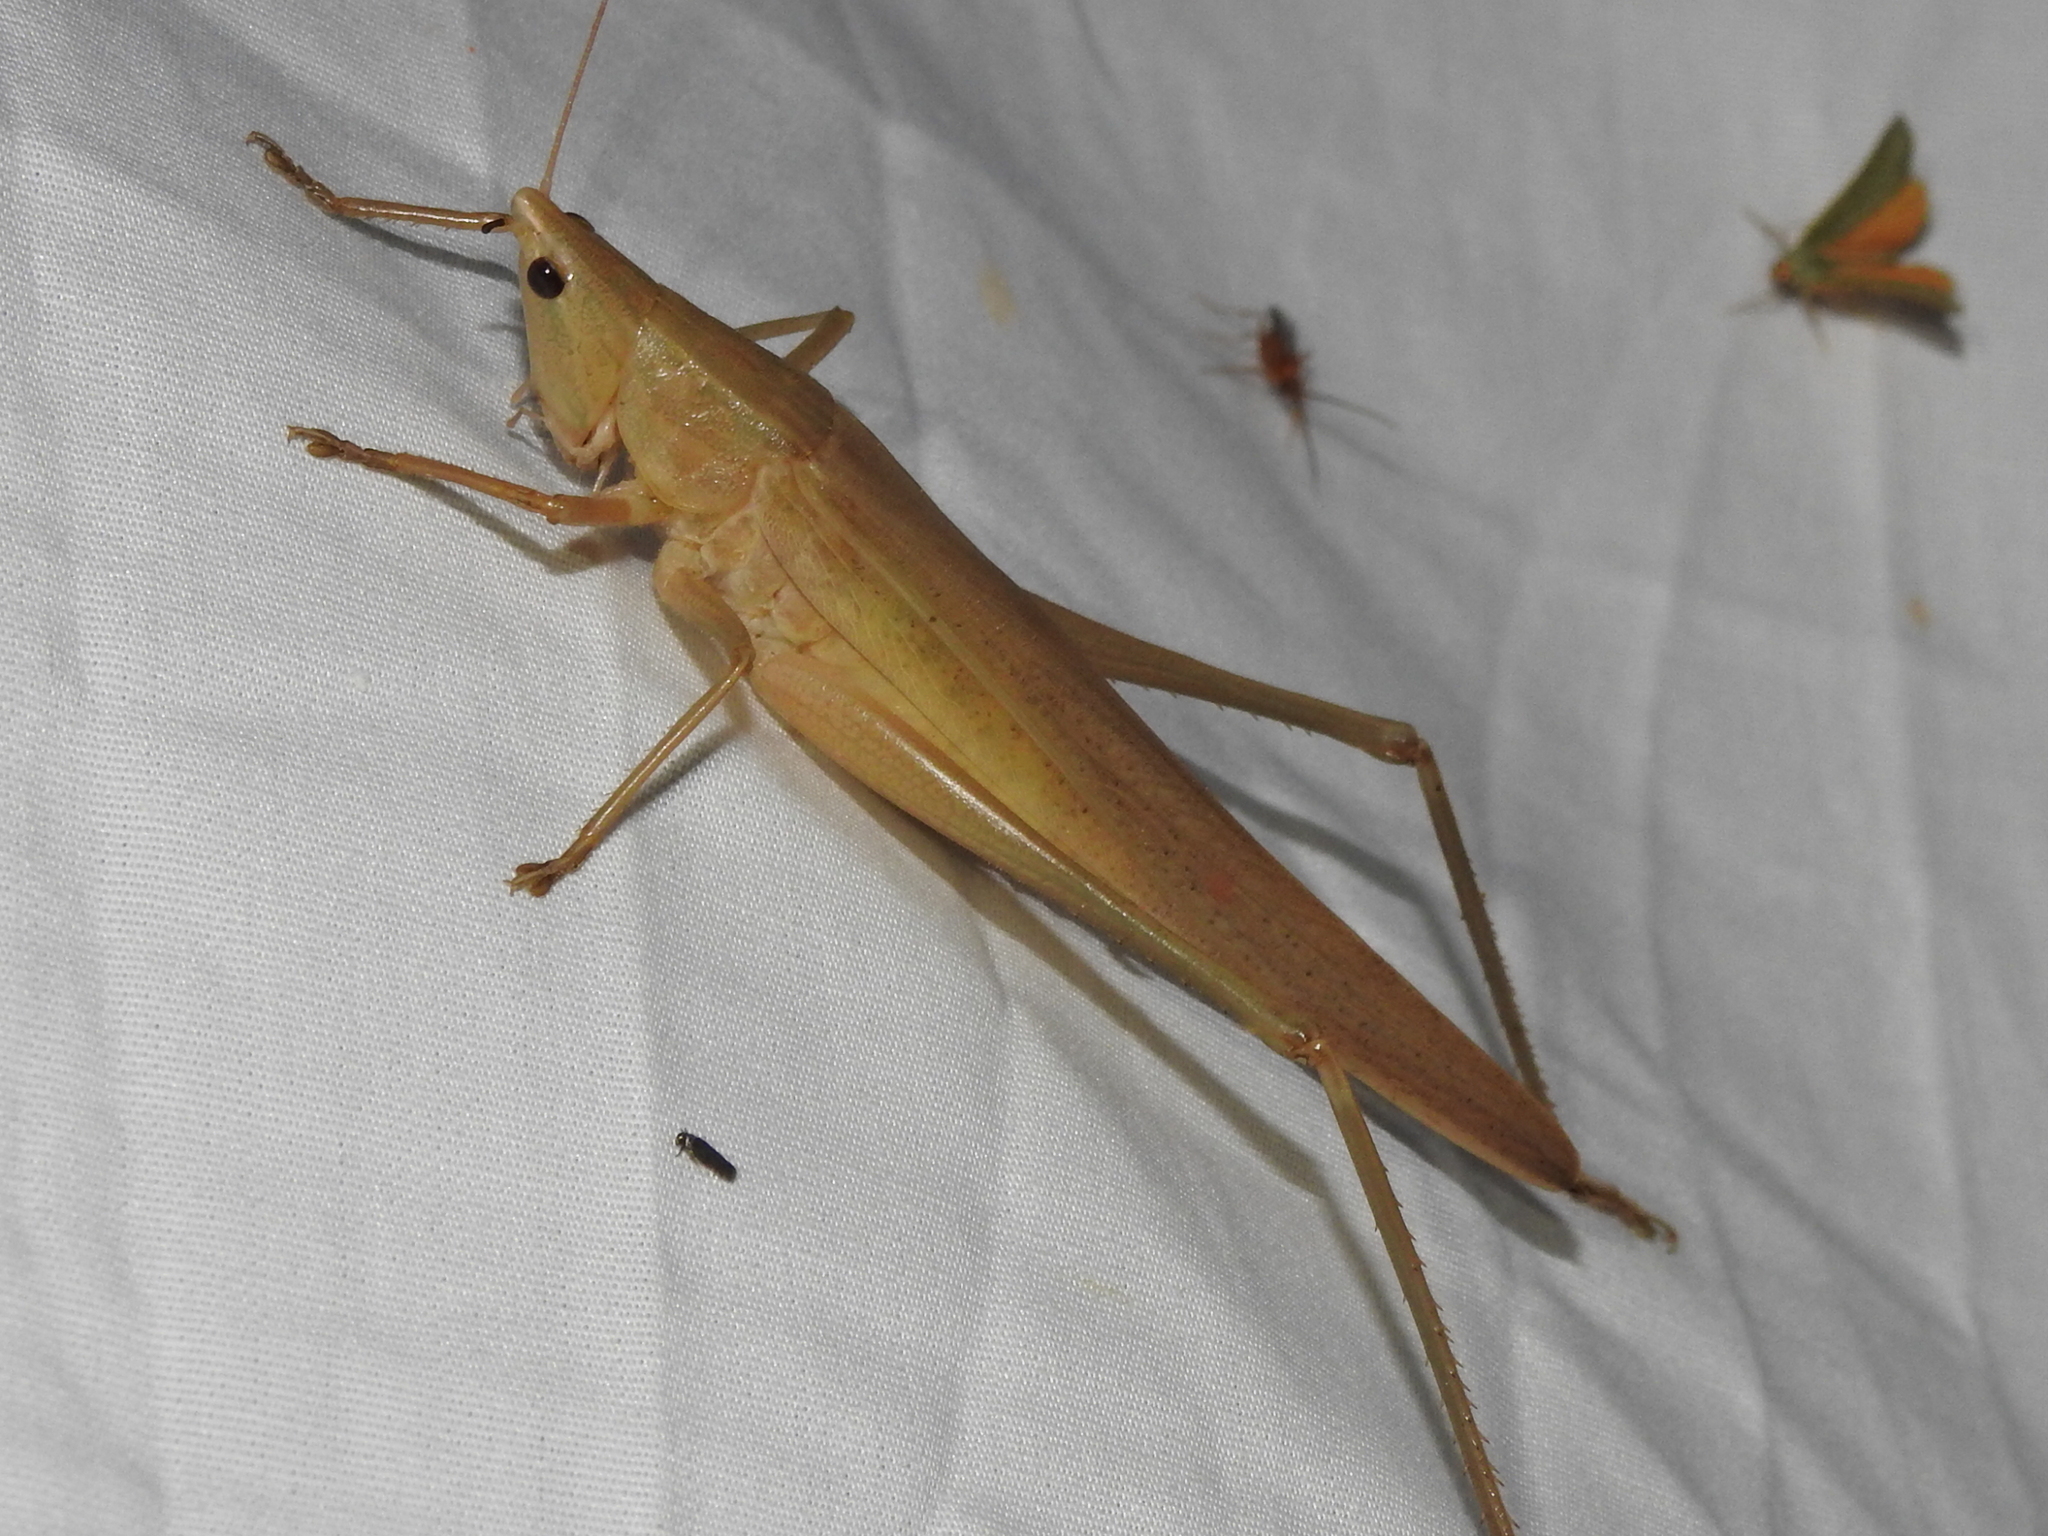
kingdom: Animalia
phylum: Arthropoda
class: Insecta
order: Orthoptera
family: Tettigoniidae
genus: Neoconocephalus
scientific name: Neoconocephalus triops
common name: Broad-tipped conehead
